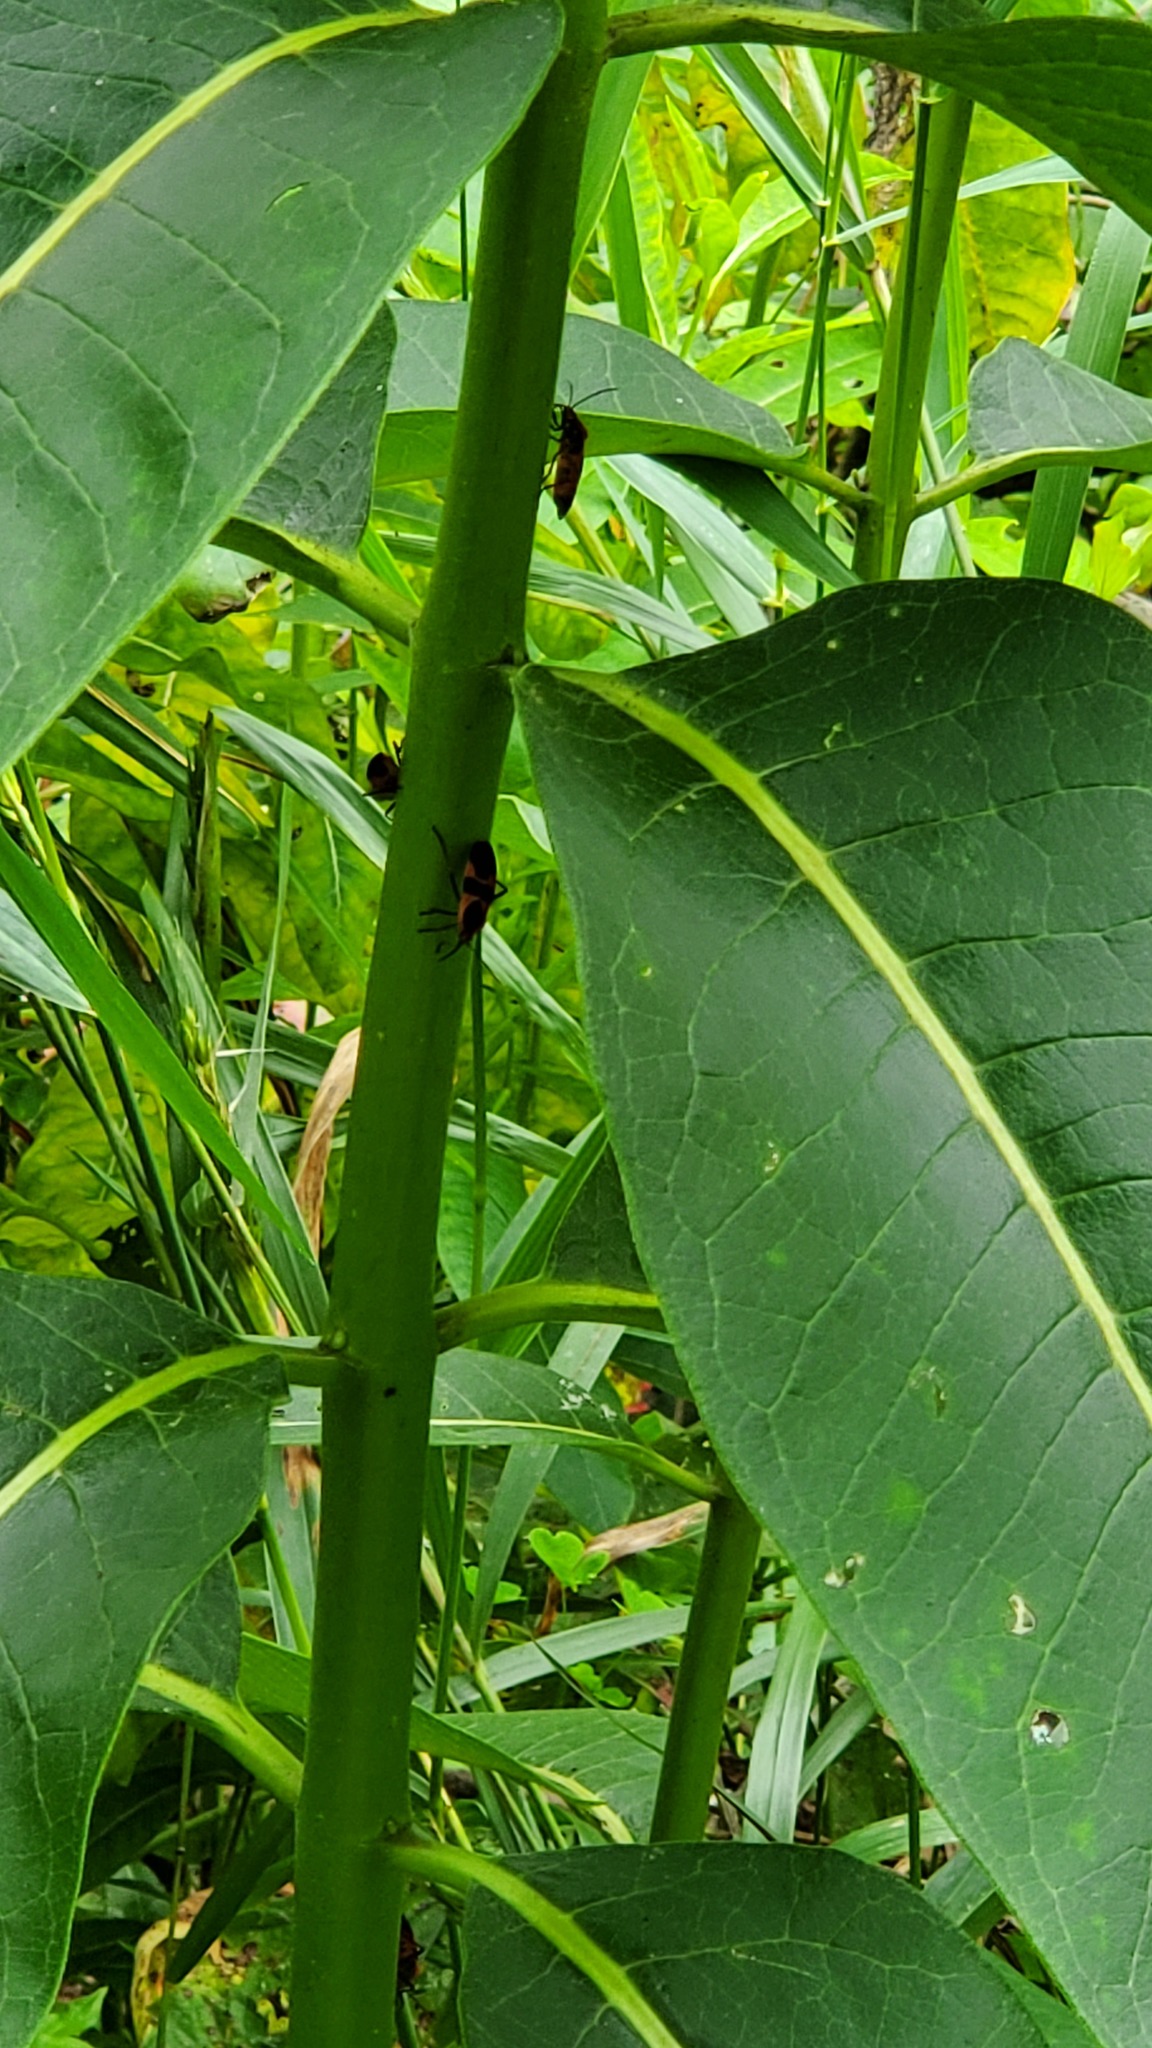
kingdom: Animalia
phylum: Arthropoda
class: Insecta
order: Hemiptera
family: Lygaeidae
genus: Oncopeltus
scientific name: Oncopeltus fasciatus
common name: Large milkweed bug
